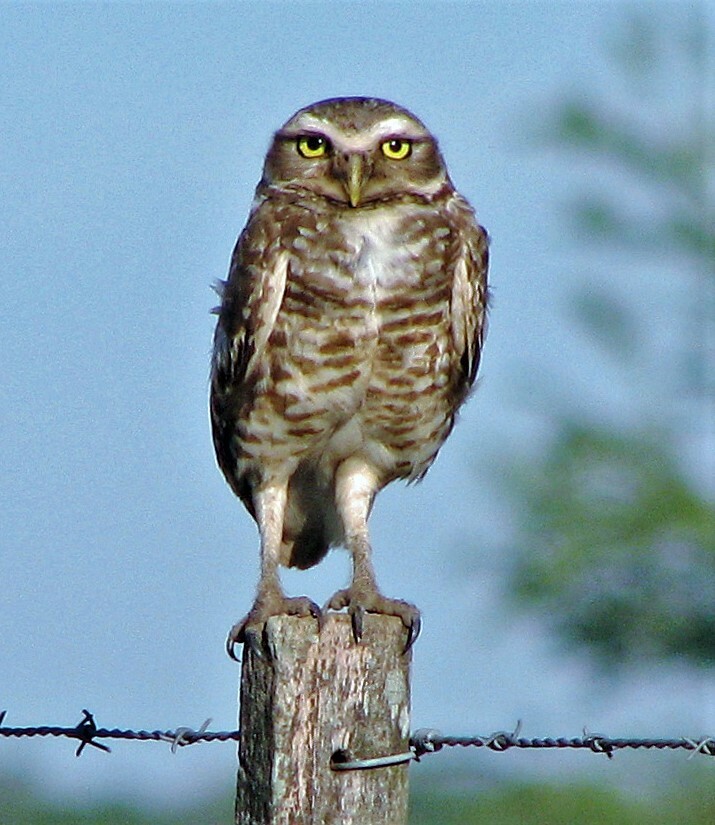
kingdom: Animalia
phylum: Chordata
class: Aves
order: Strigiformes
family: Strigidae
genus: Athene
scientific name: Athene cunicularia
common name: Burrowing owl
